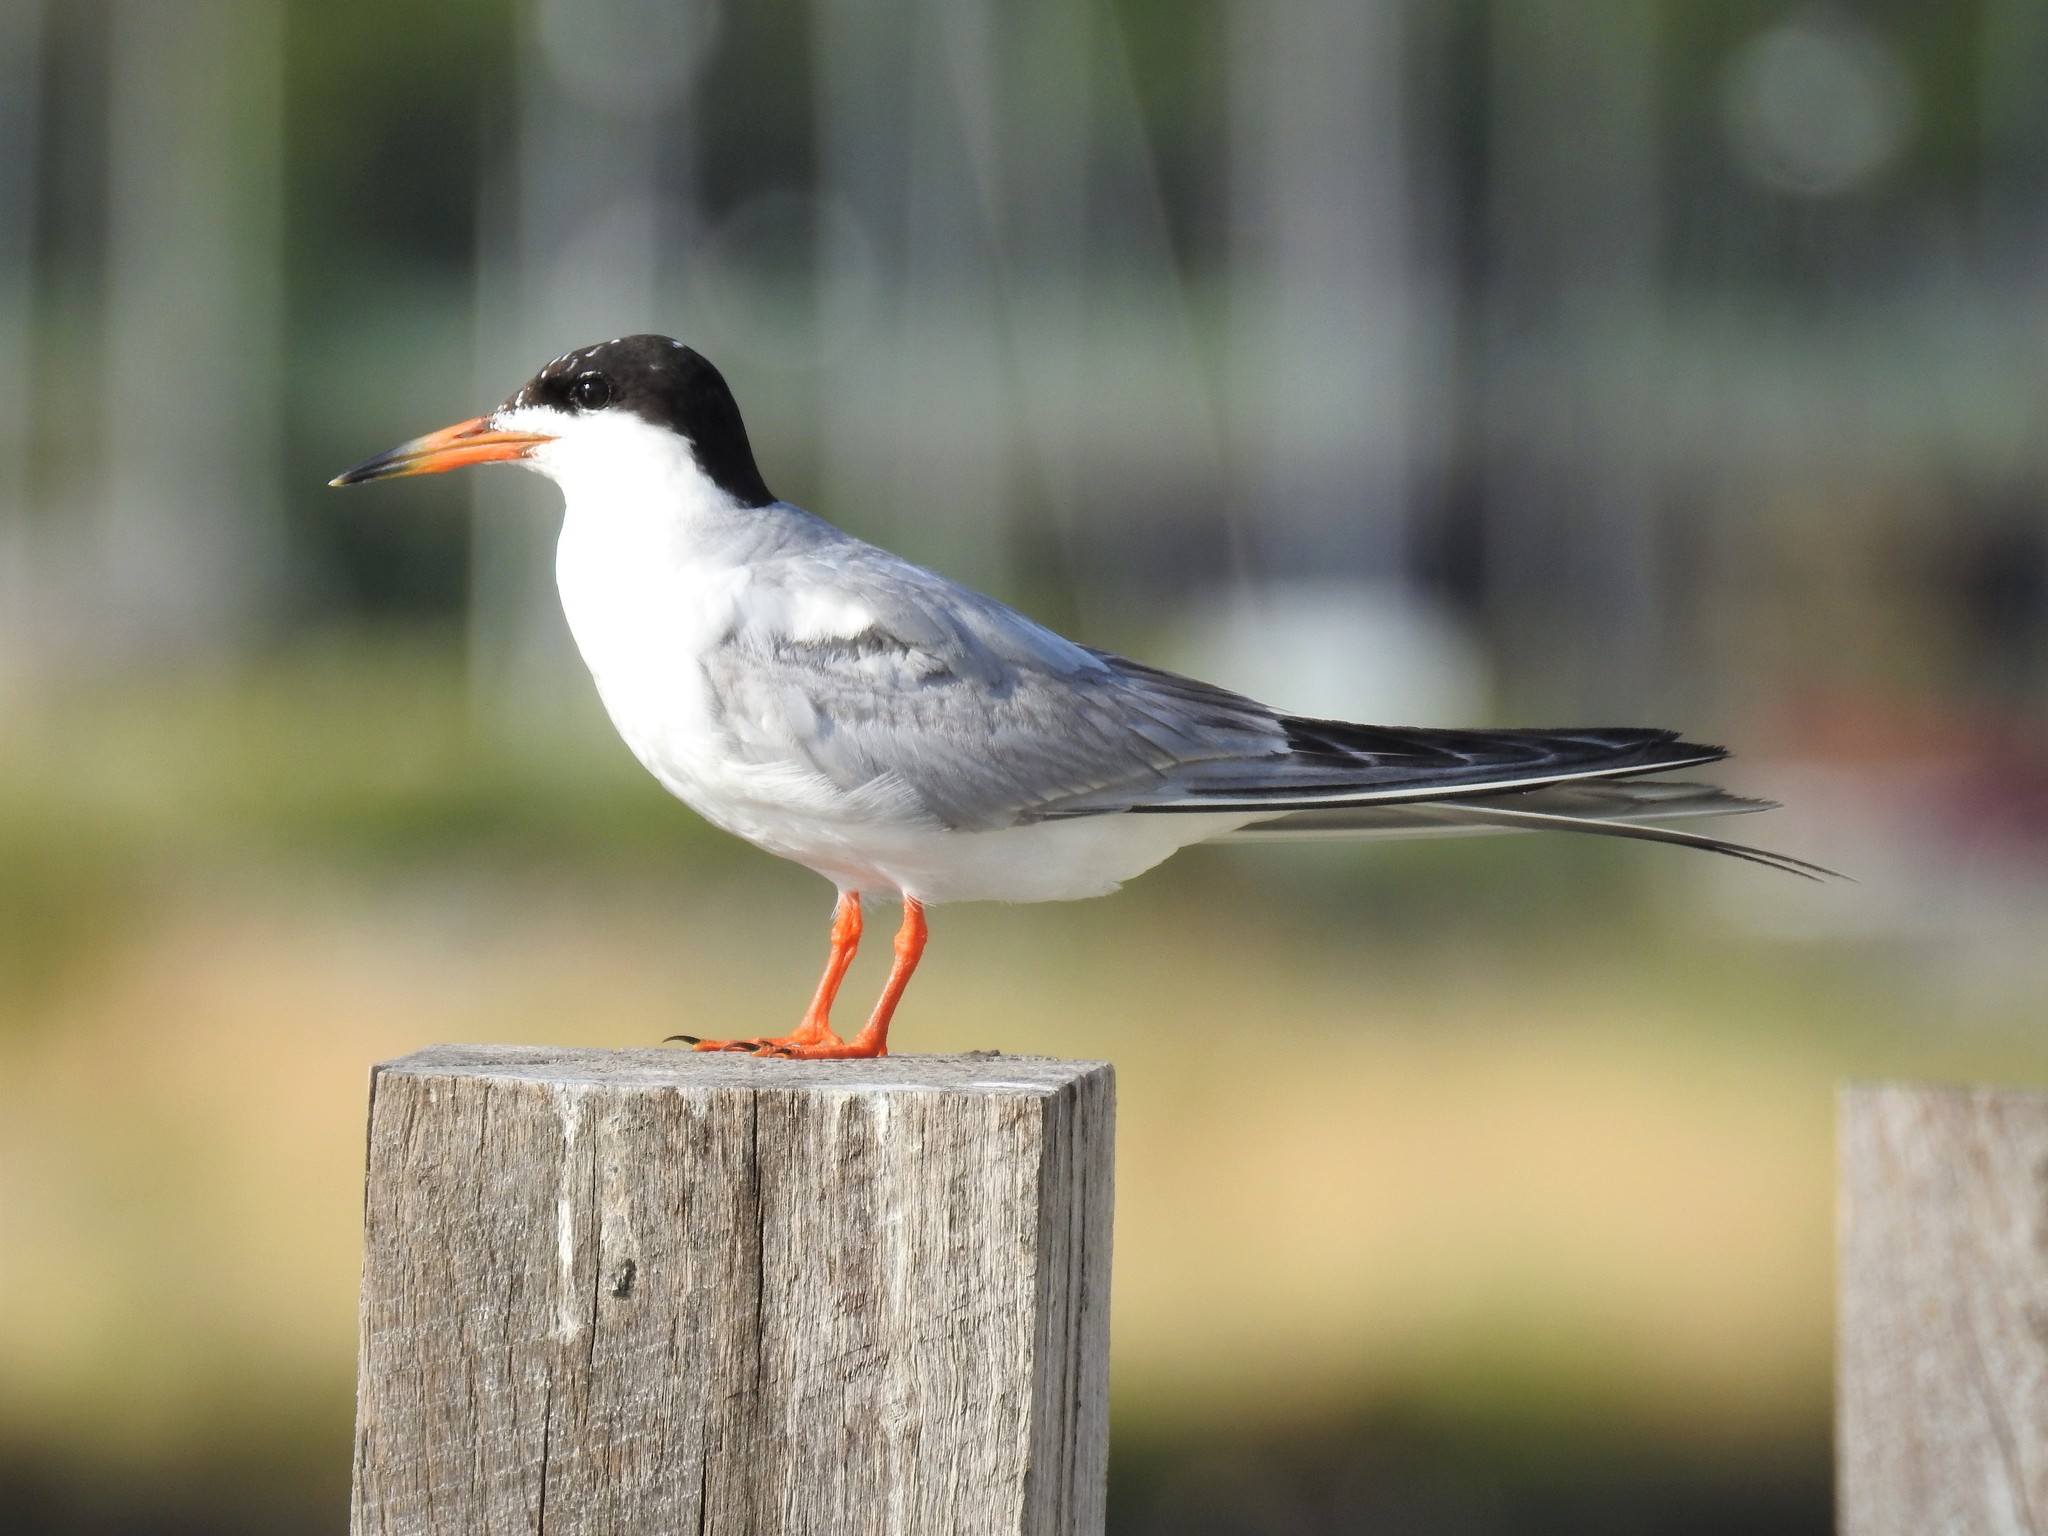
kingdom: Animalia
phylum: Chordata
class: Aves
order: Charadriiformes
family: Laridae
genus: Sterna
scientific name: Sterna forsteri
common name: Forster's tern
